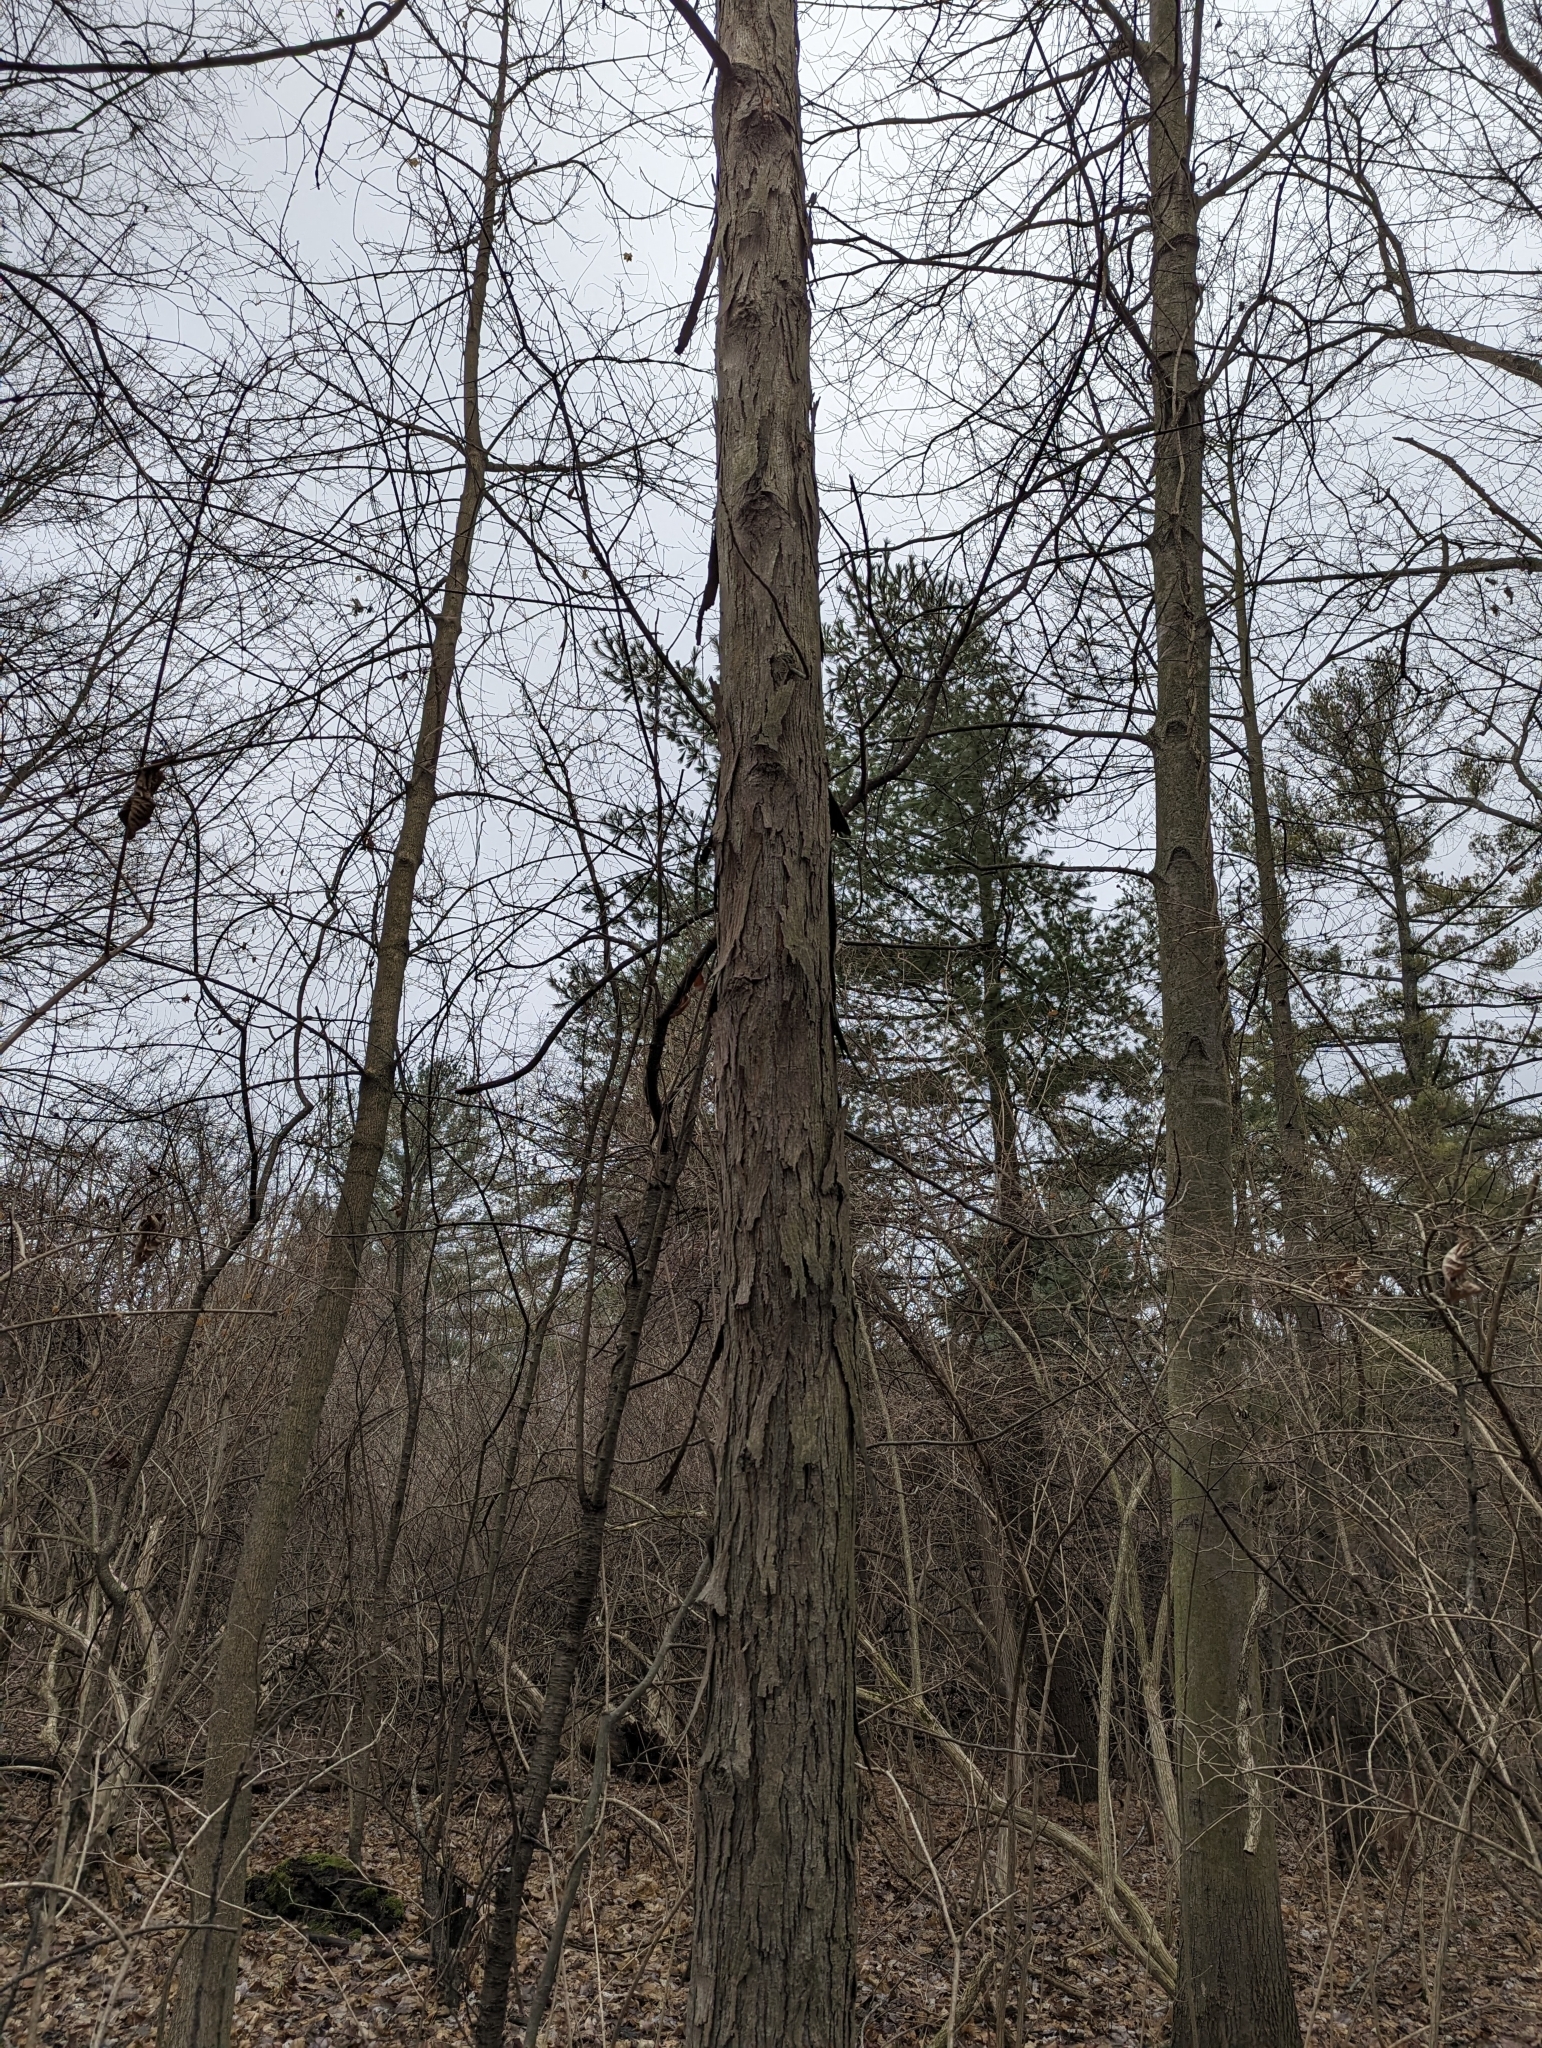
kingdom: Plantae
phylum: Tracheophyta
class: Magnoliopsida
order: Fagales
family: Juglandaceae
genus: Carya
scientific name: Carya ovata
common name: Shagbark hickory
